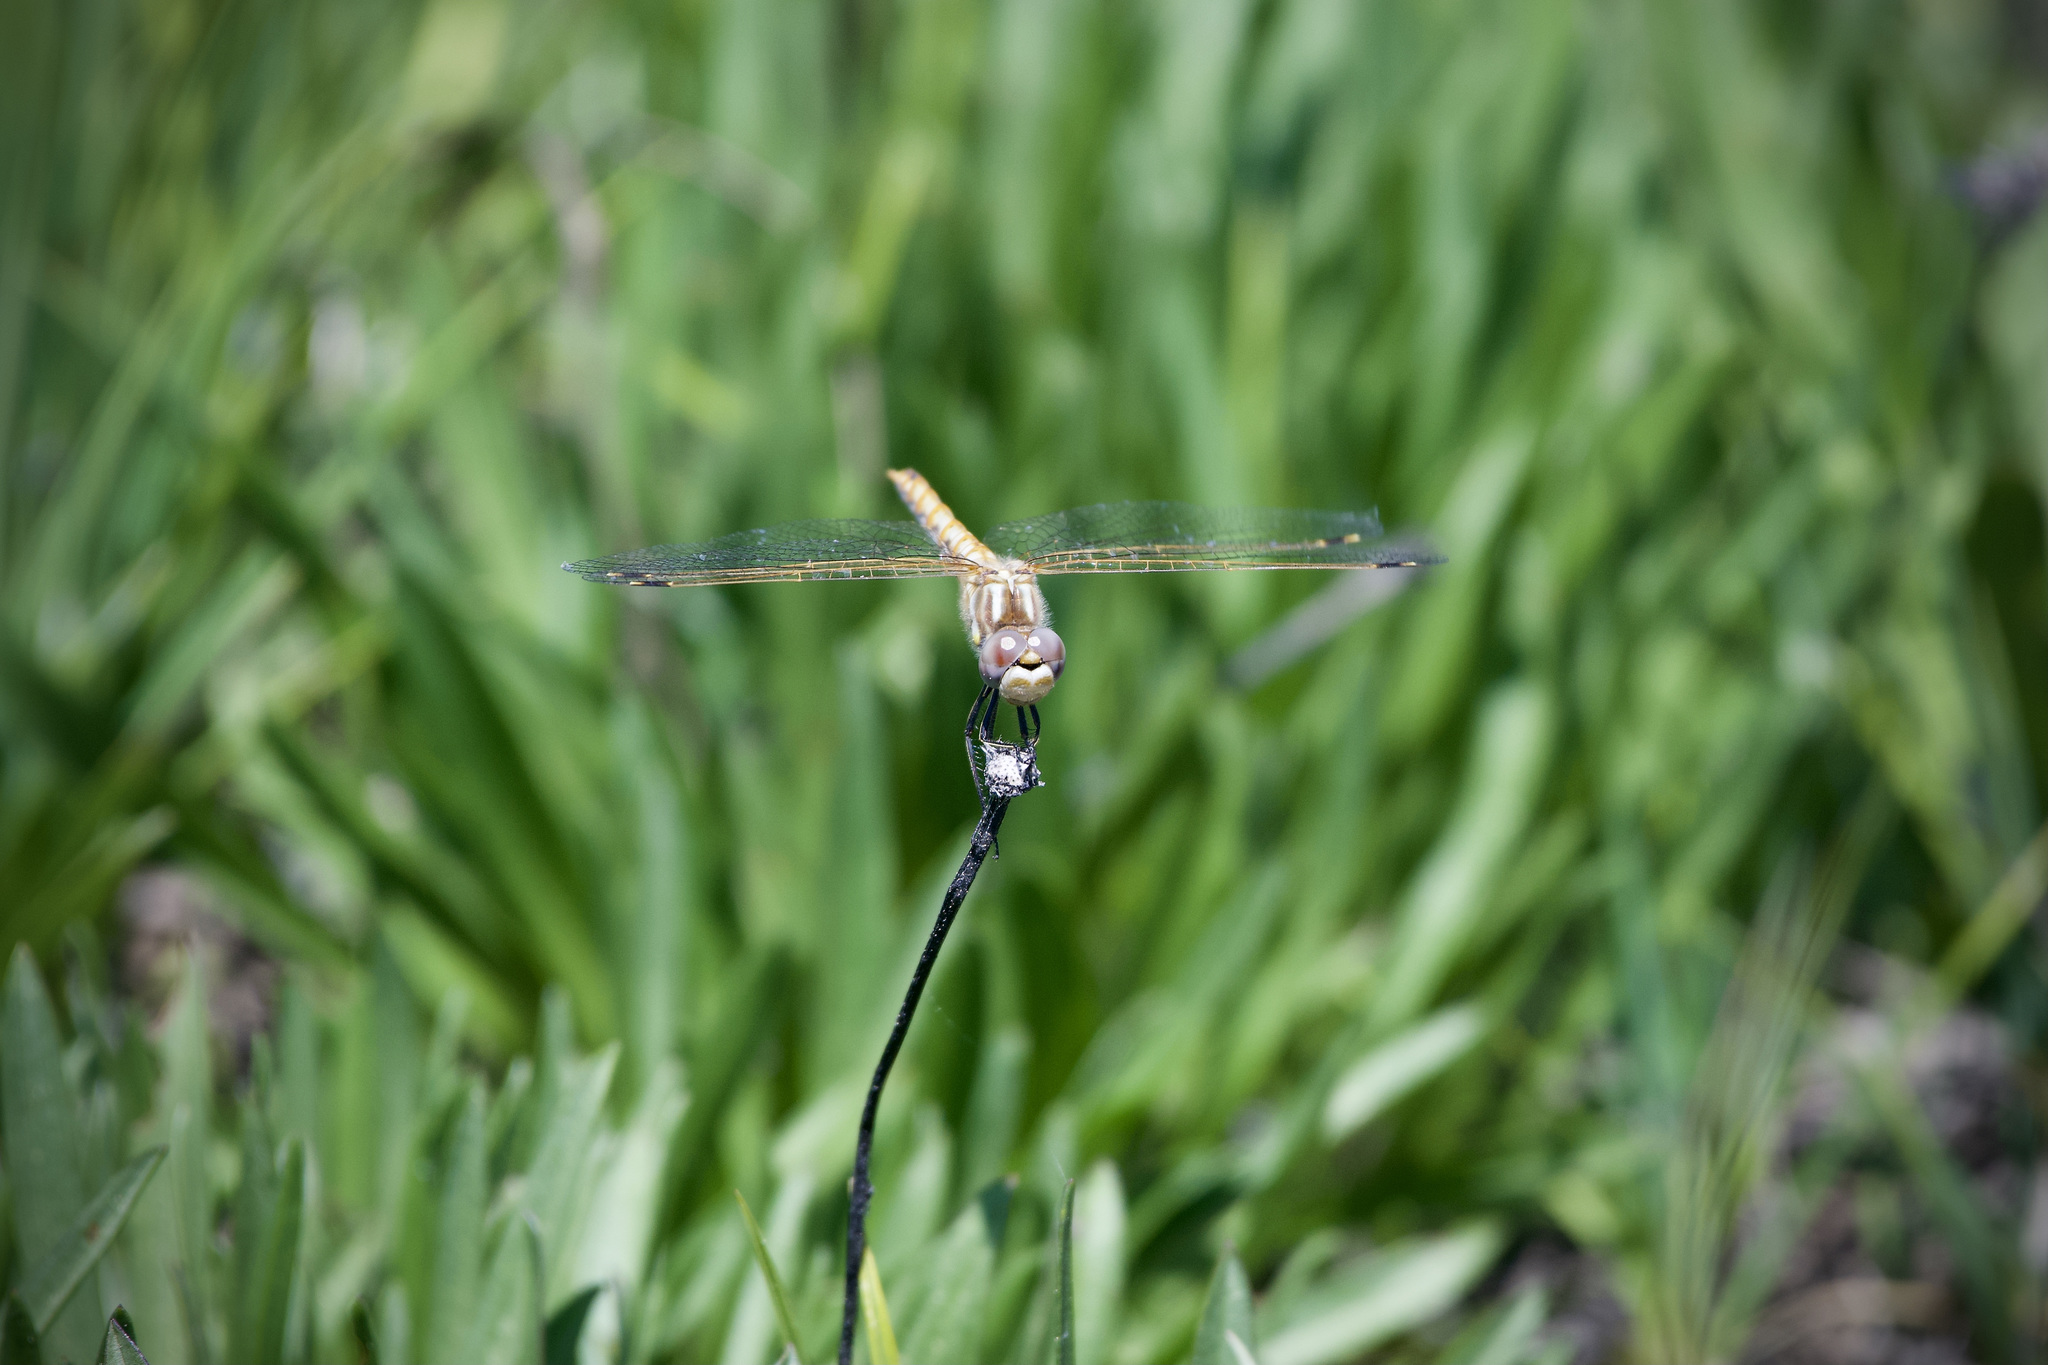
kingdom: Animalia
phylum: Arthropoda
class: Insecta
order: Odonata
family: Libellulidae
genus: Sympetrum
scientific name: Sympetrum corruptum
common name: Variegated meadowhawk
